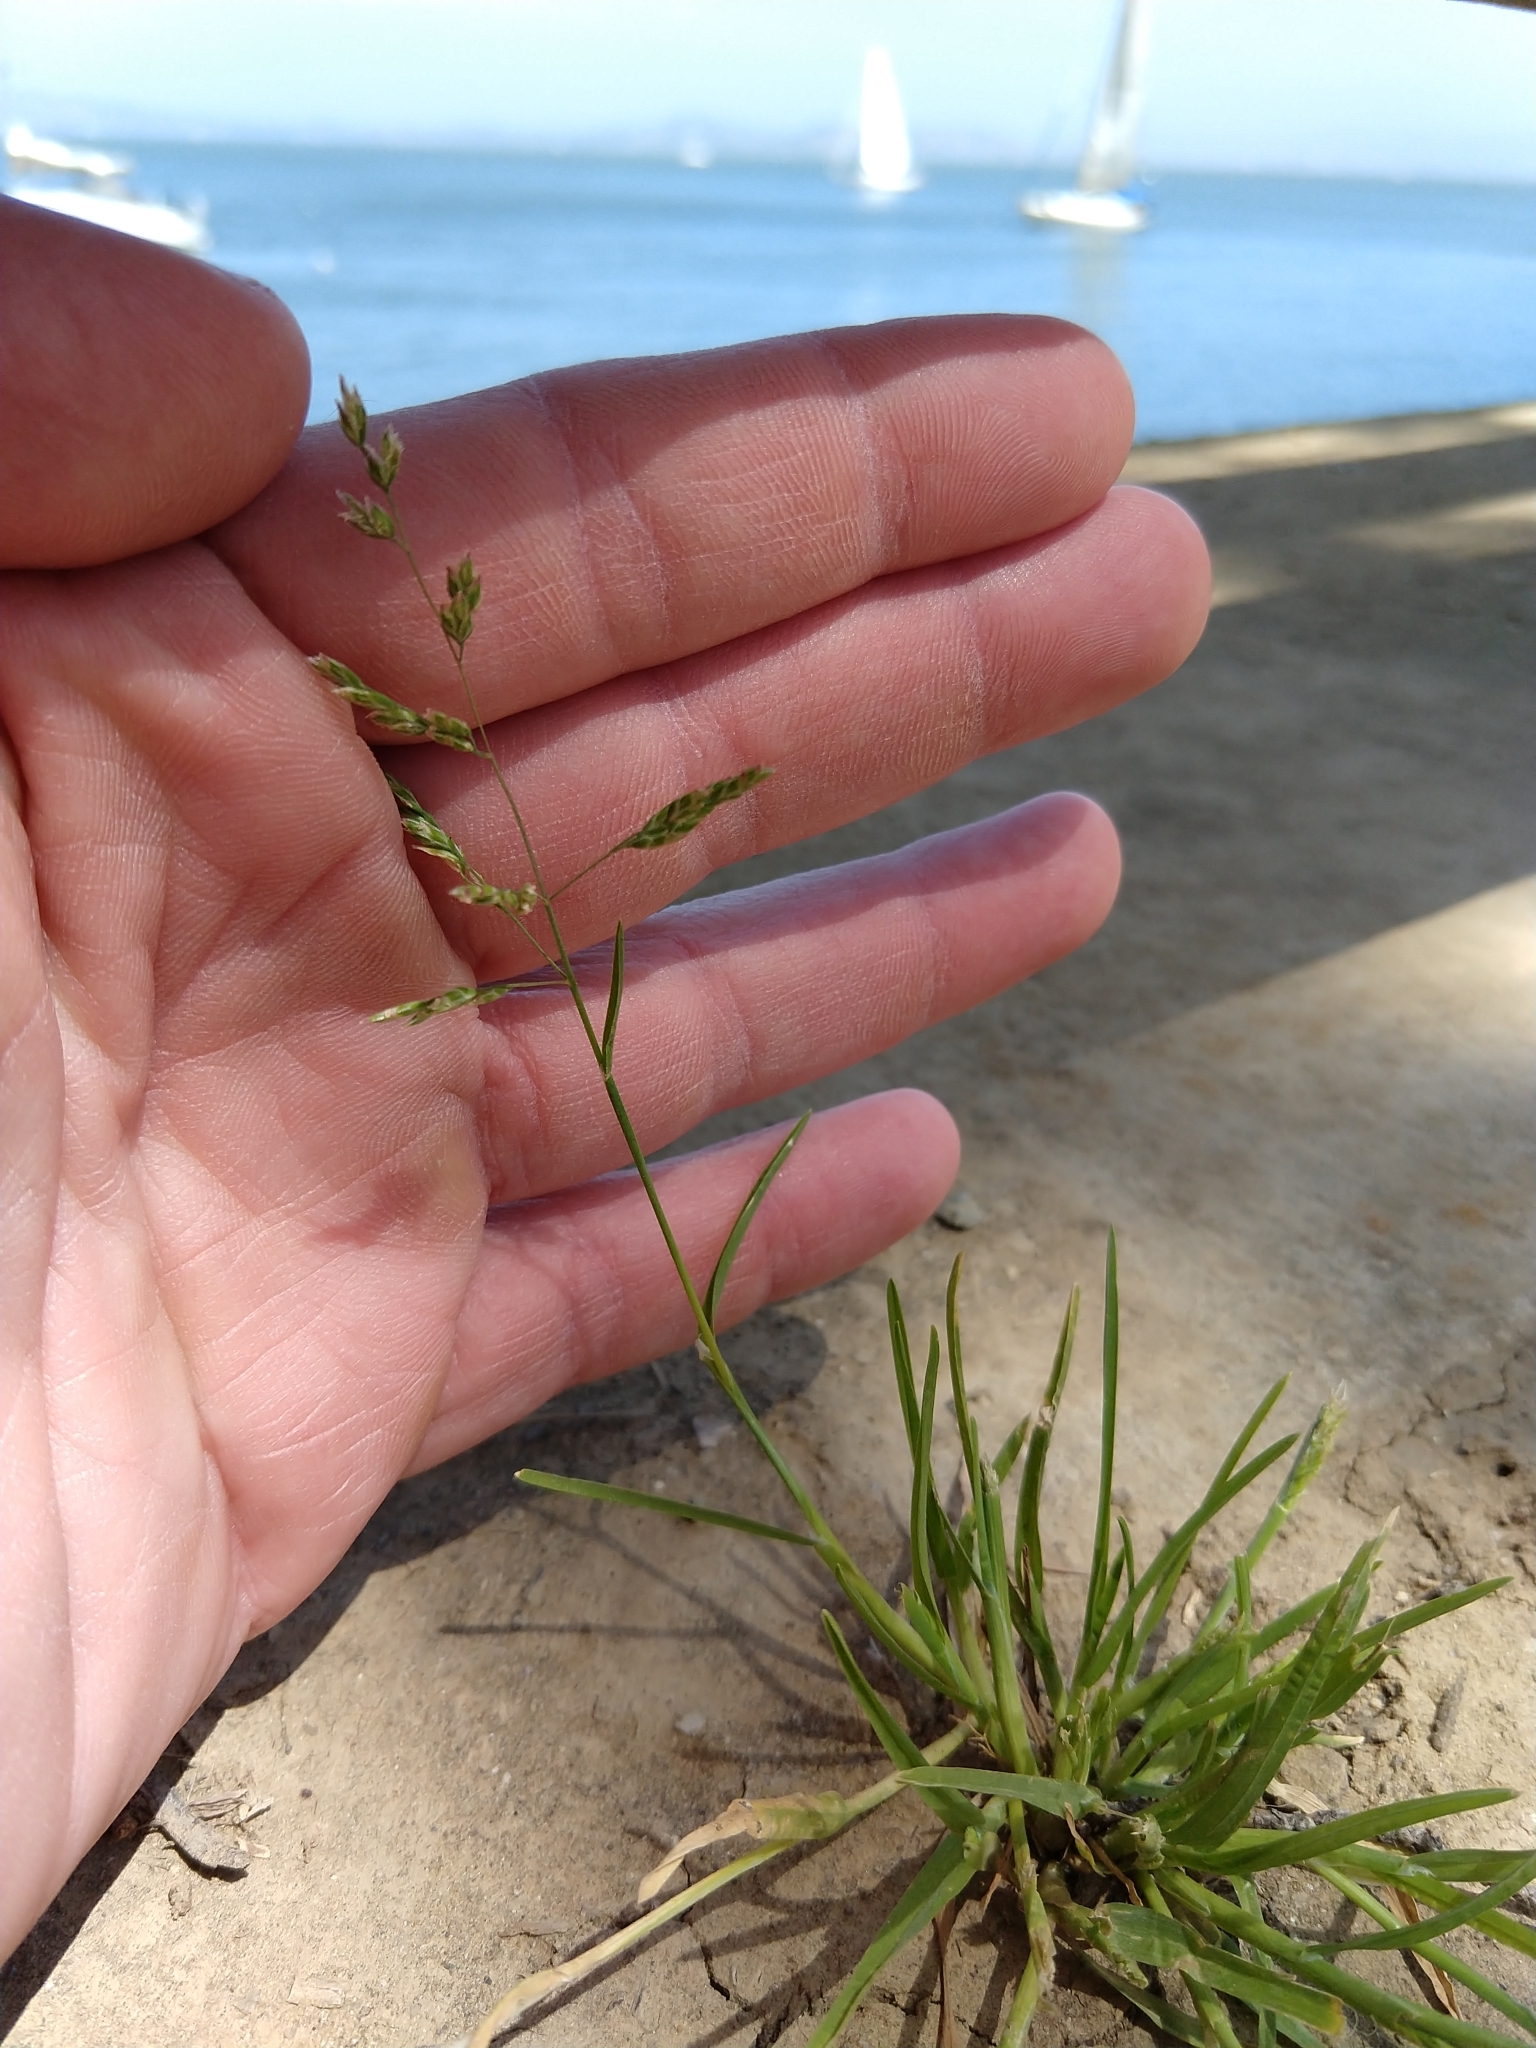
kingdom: Plantae
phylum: Tracheophyta
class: Liliopsida
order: Poales
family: Poaceae
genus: Poa
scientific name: Poa annua
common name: Annual bluegrass
